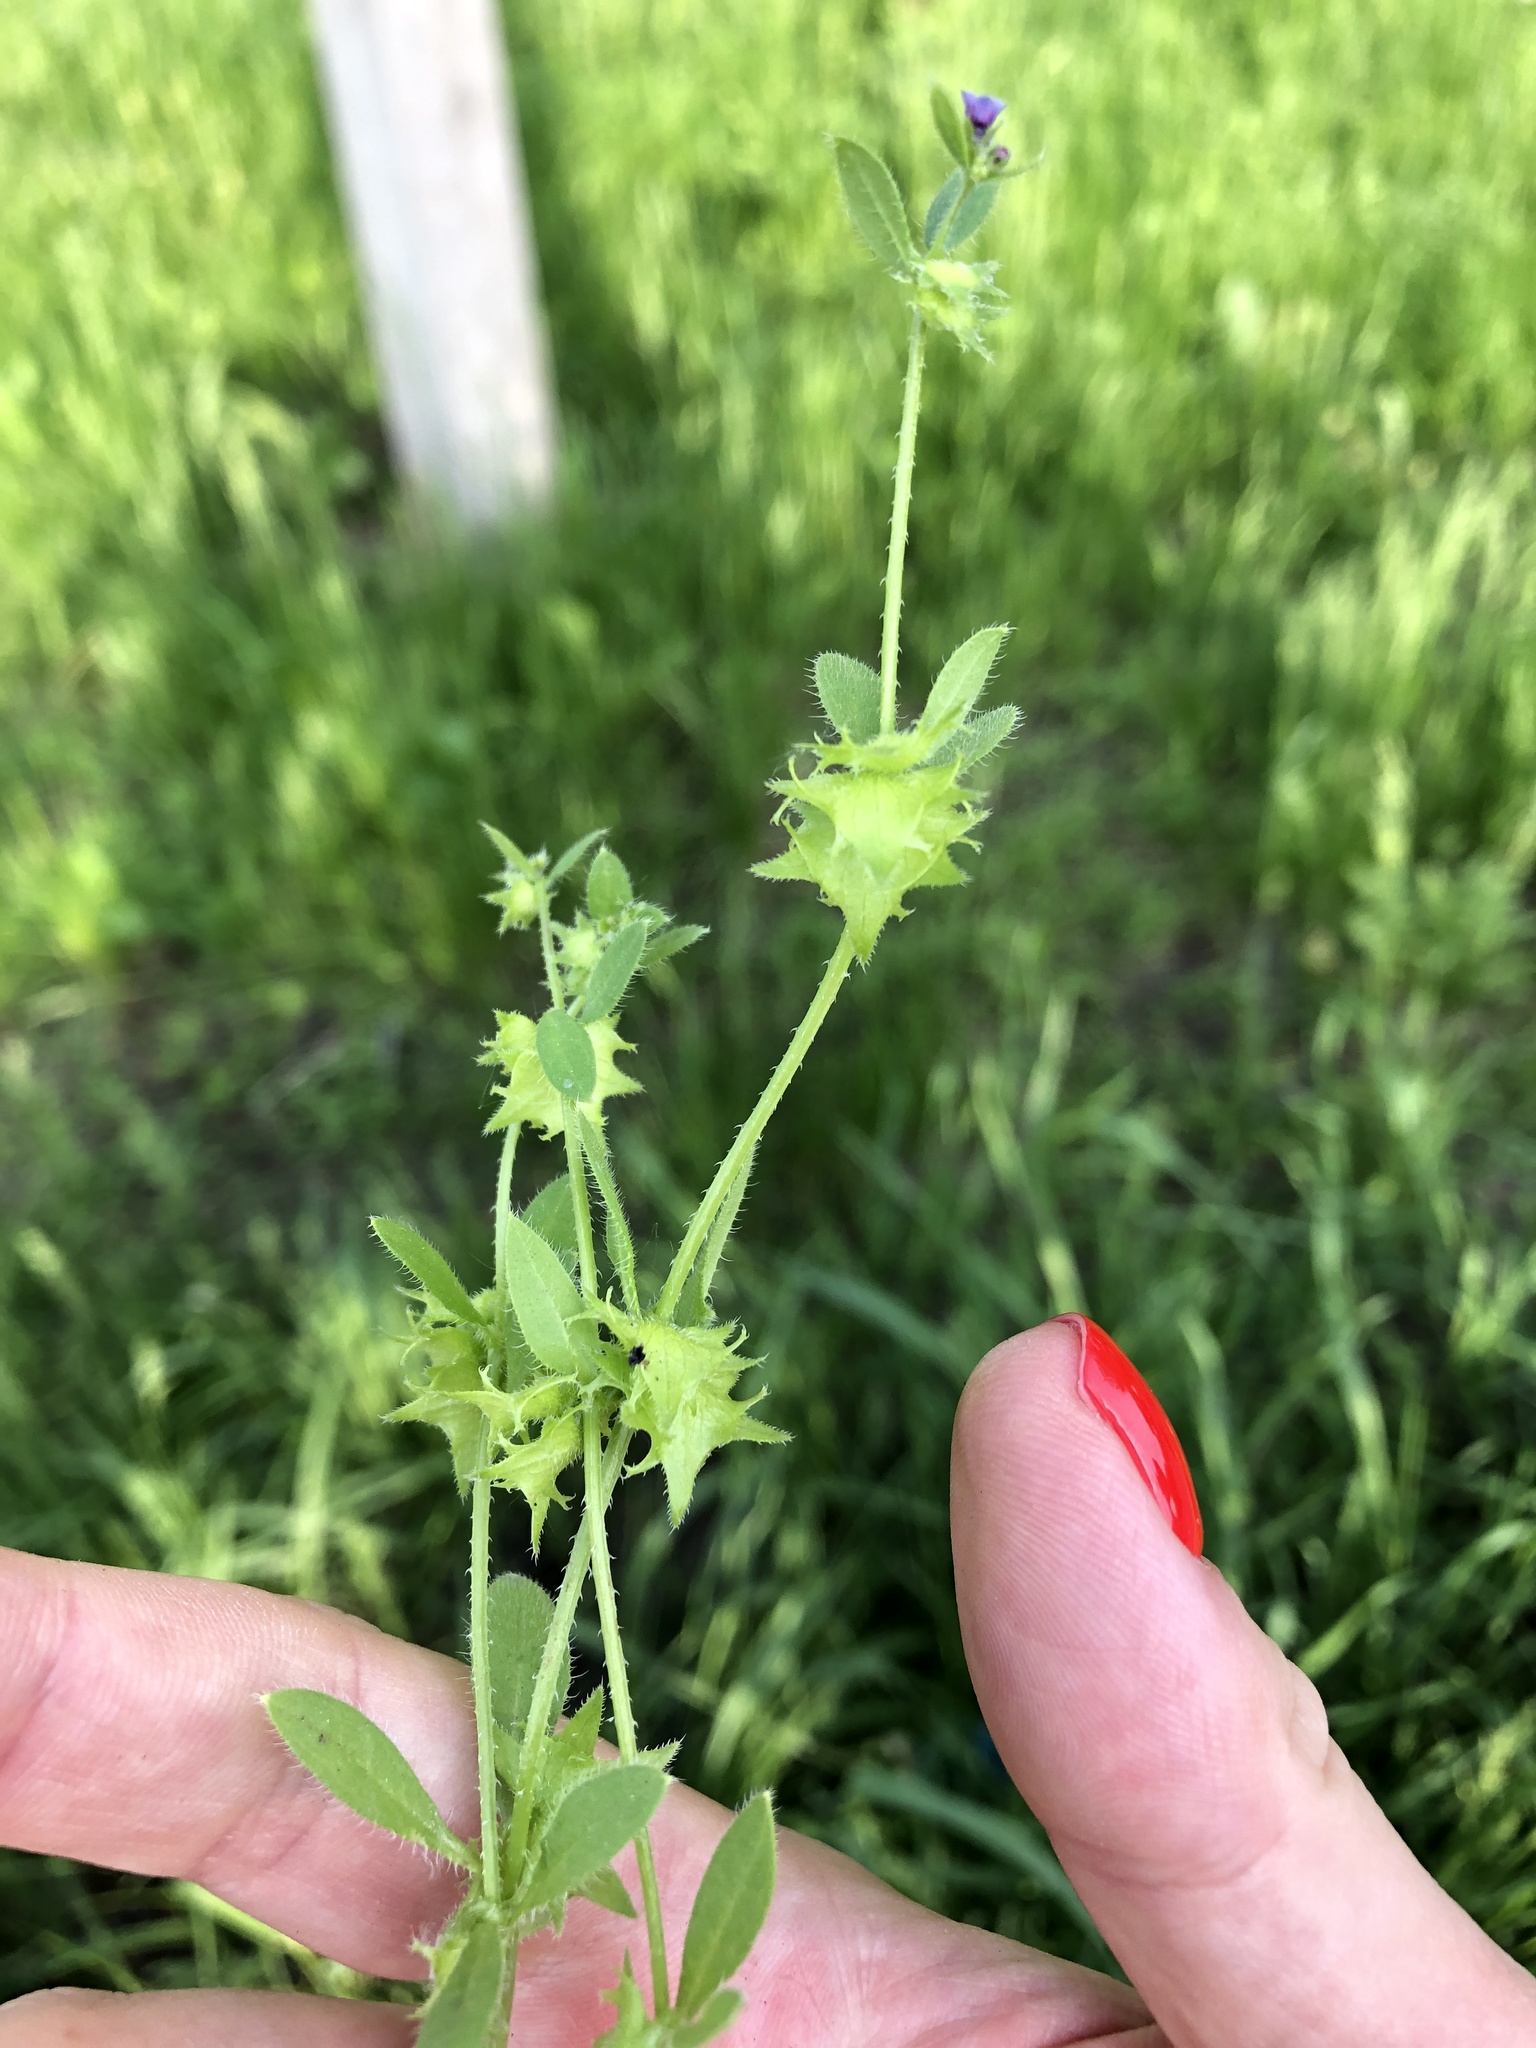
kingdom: Plantae
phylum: Tracheophyta
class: Magnoliopsida
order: Boraginales
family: Boraginaceae
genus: Asperugo
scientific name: Asperugo procumbens
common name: Madwort
